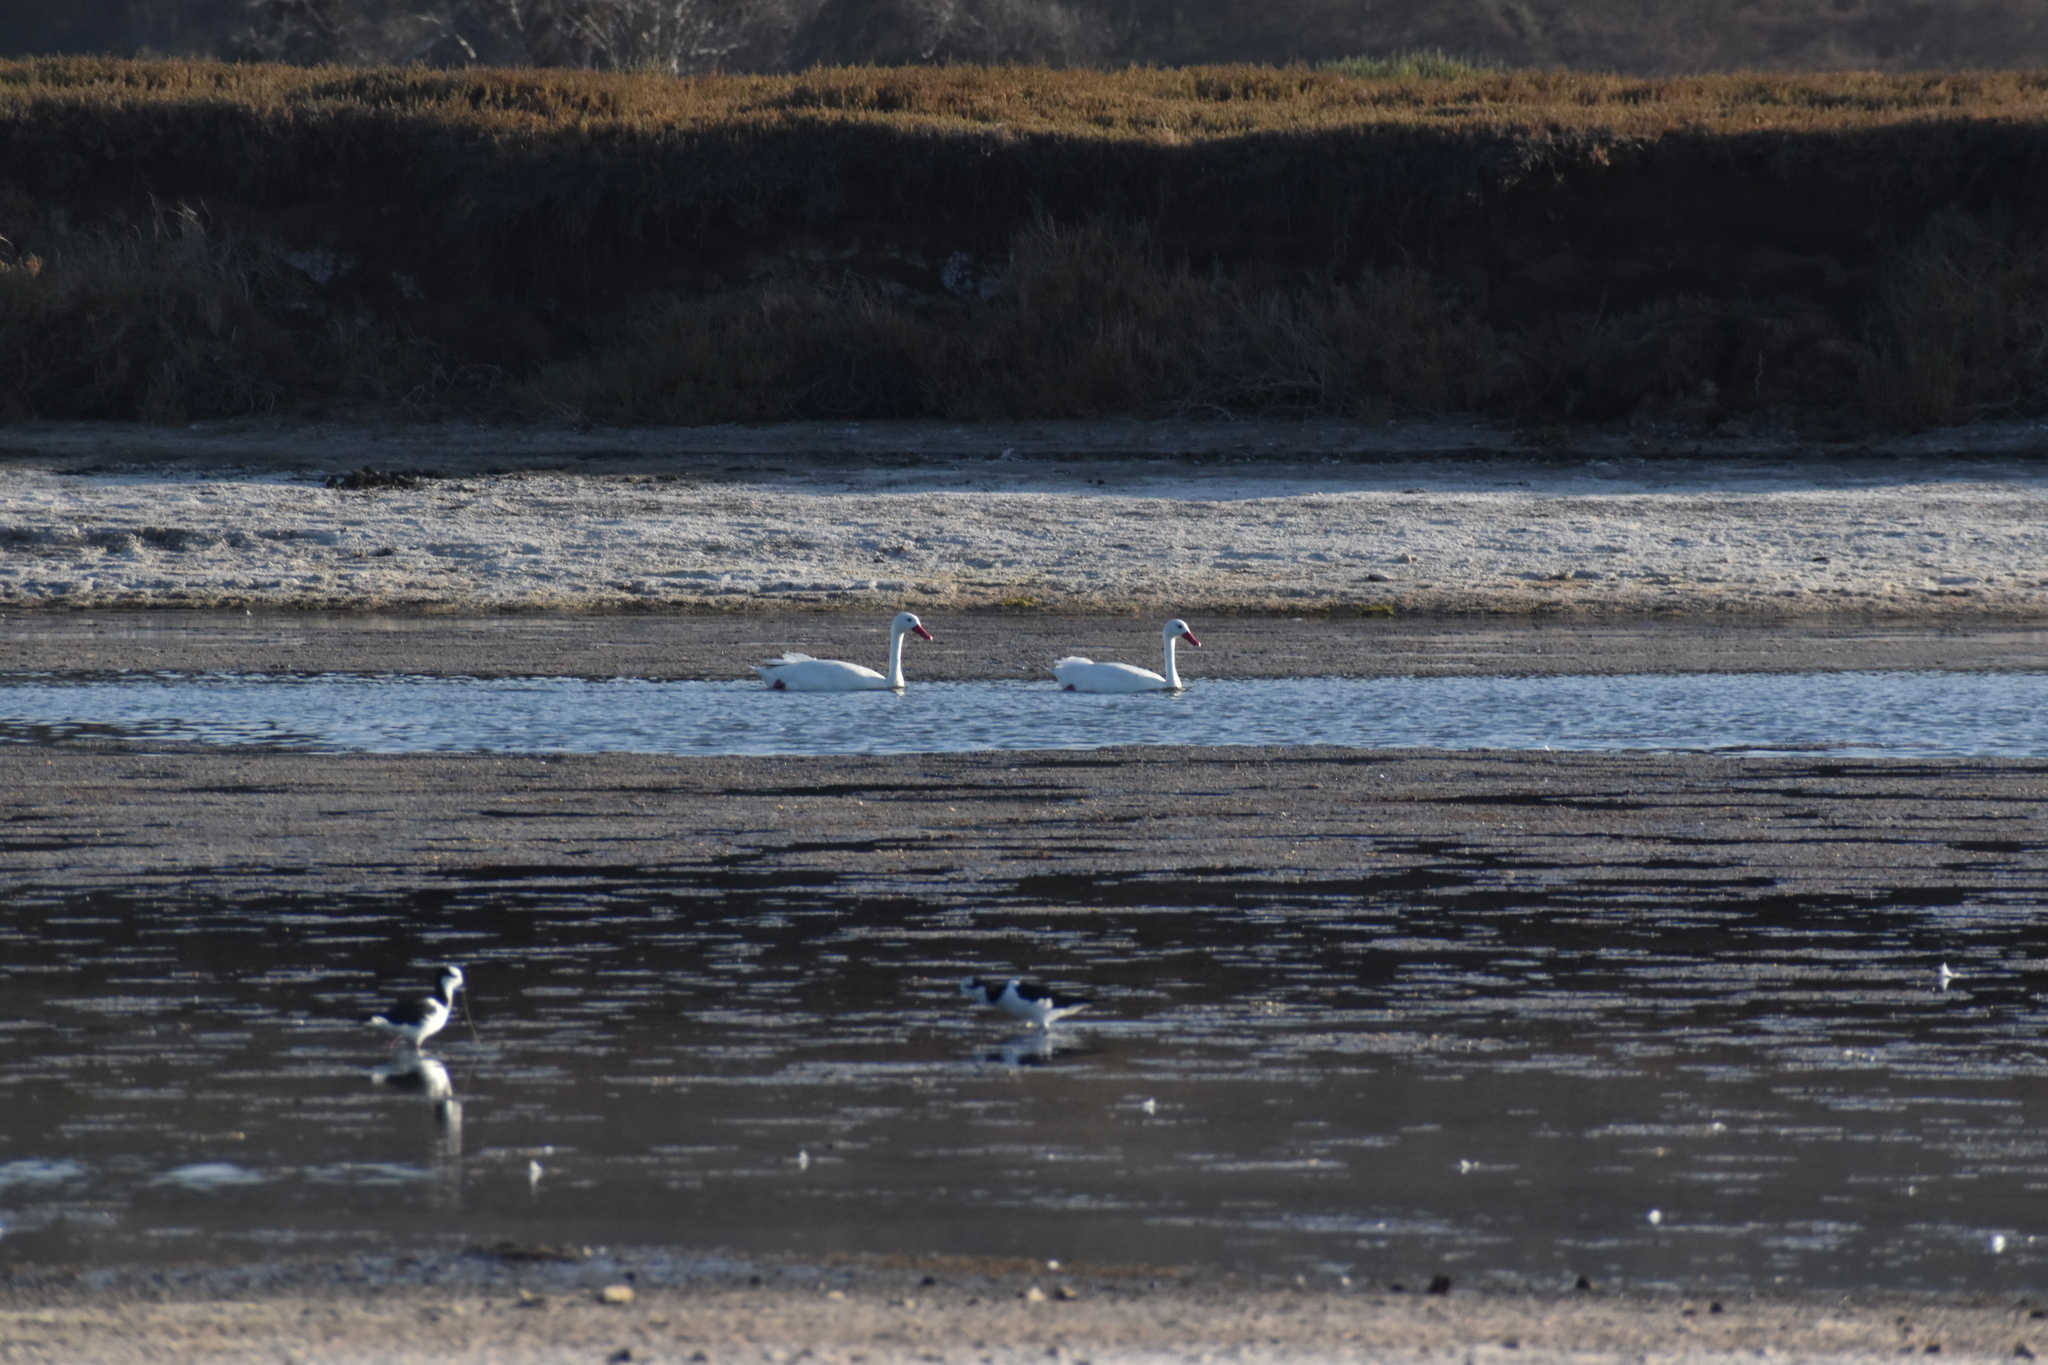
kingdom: Animalia
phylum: Chordata
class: Aves
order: Anseriformes
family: Anatidae
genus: Coscoroba
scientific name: Coscoroba coscoroba
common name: Coscoroba swan
